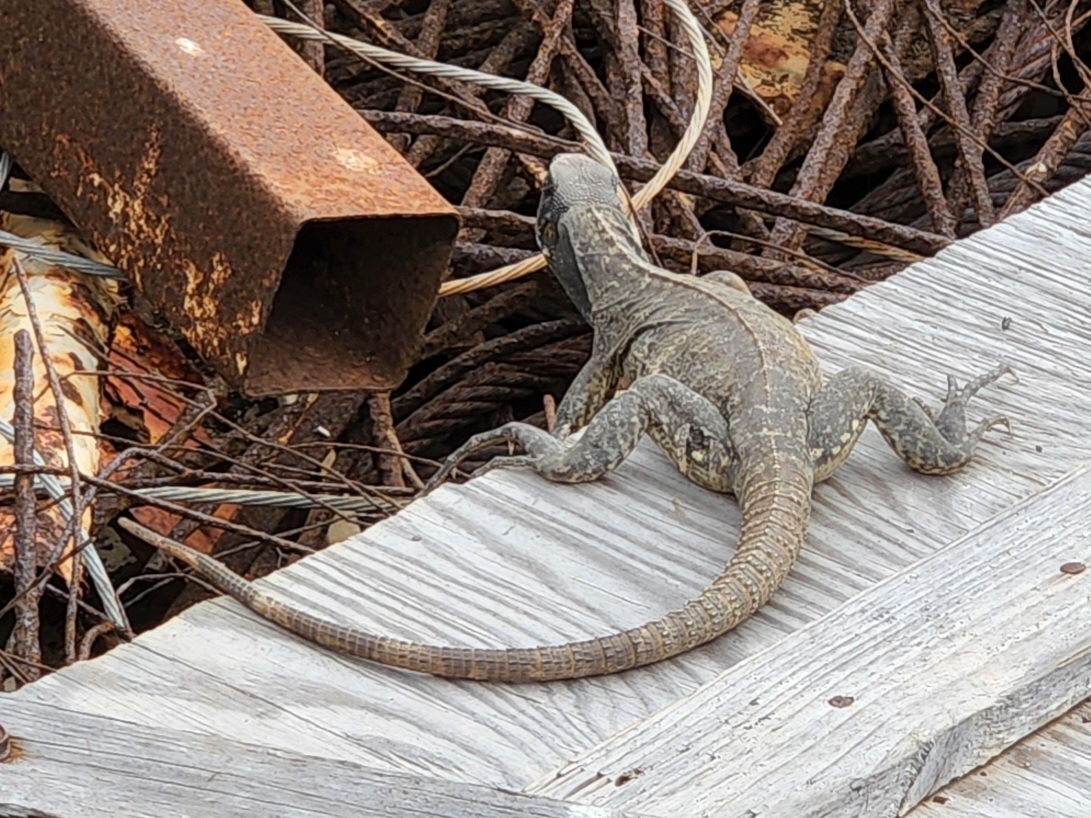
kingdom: Animalia
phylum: Chordata
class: Squamata
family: Iguanidae
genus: Ctenosaura
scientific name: Ctenosaura pectinata
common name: Guerreran spiny-tailed iguana
